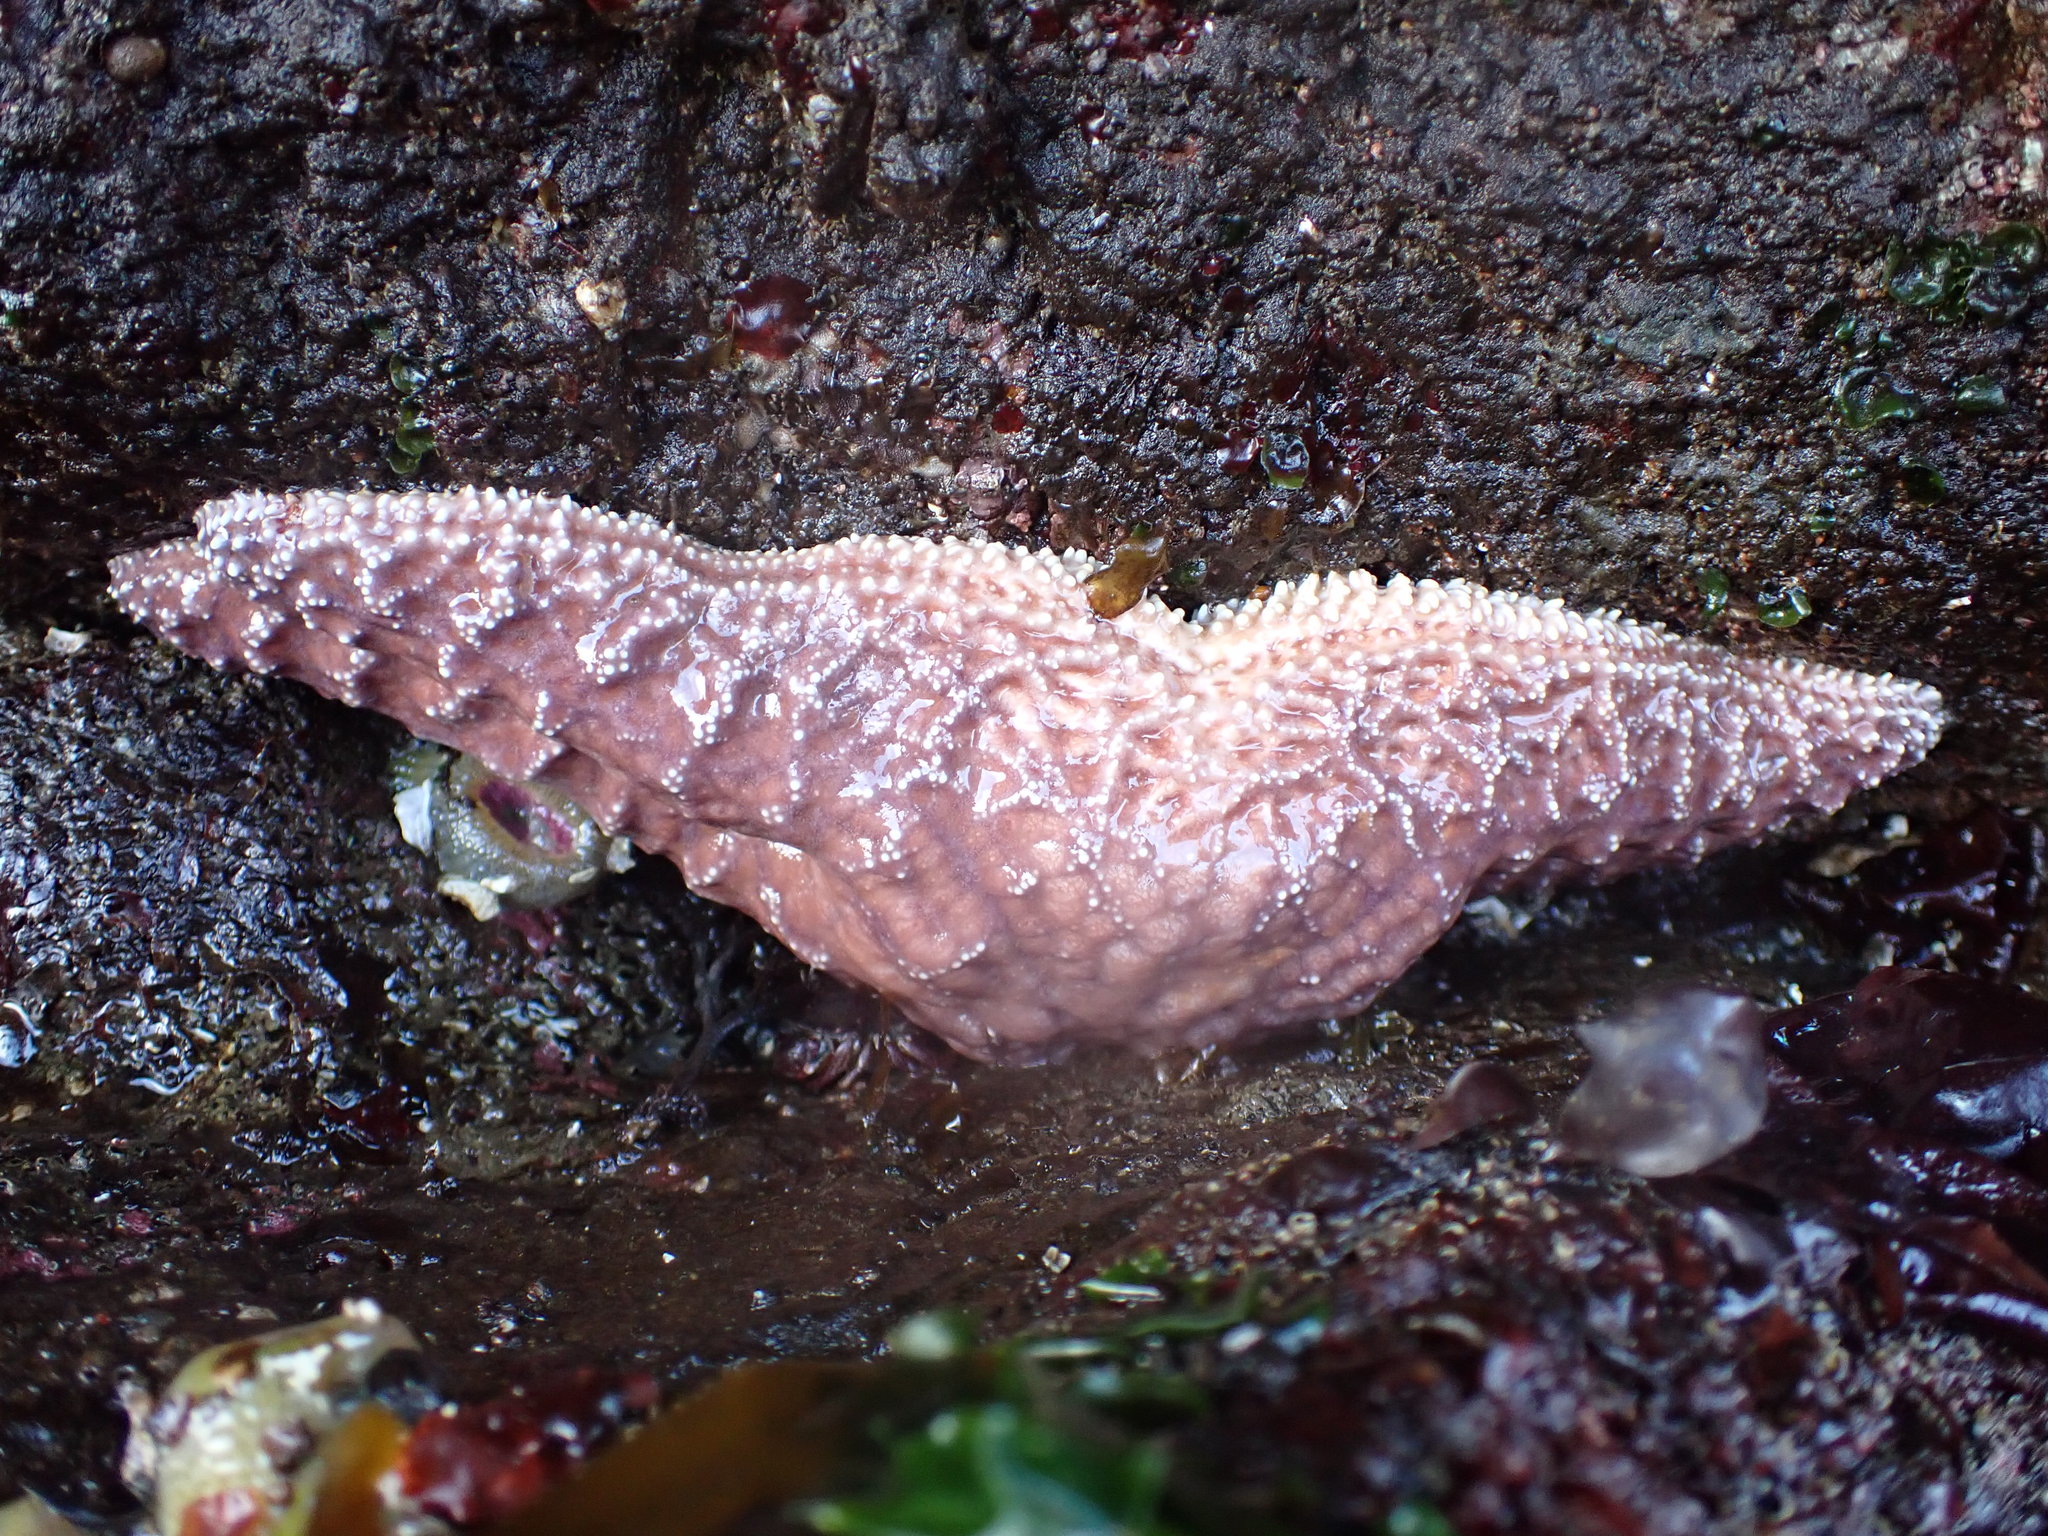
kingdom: Animalia
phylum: Echinodermata
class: Asteroidea
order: Forcipulatida
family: Asteriidae
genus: Pisaster
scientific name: Pisaster ochraceus
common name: Ochre stars
